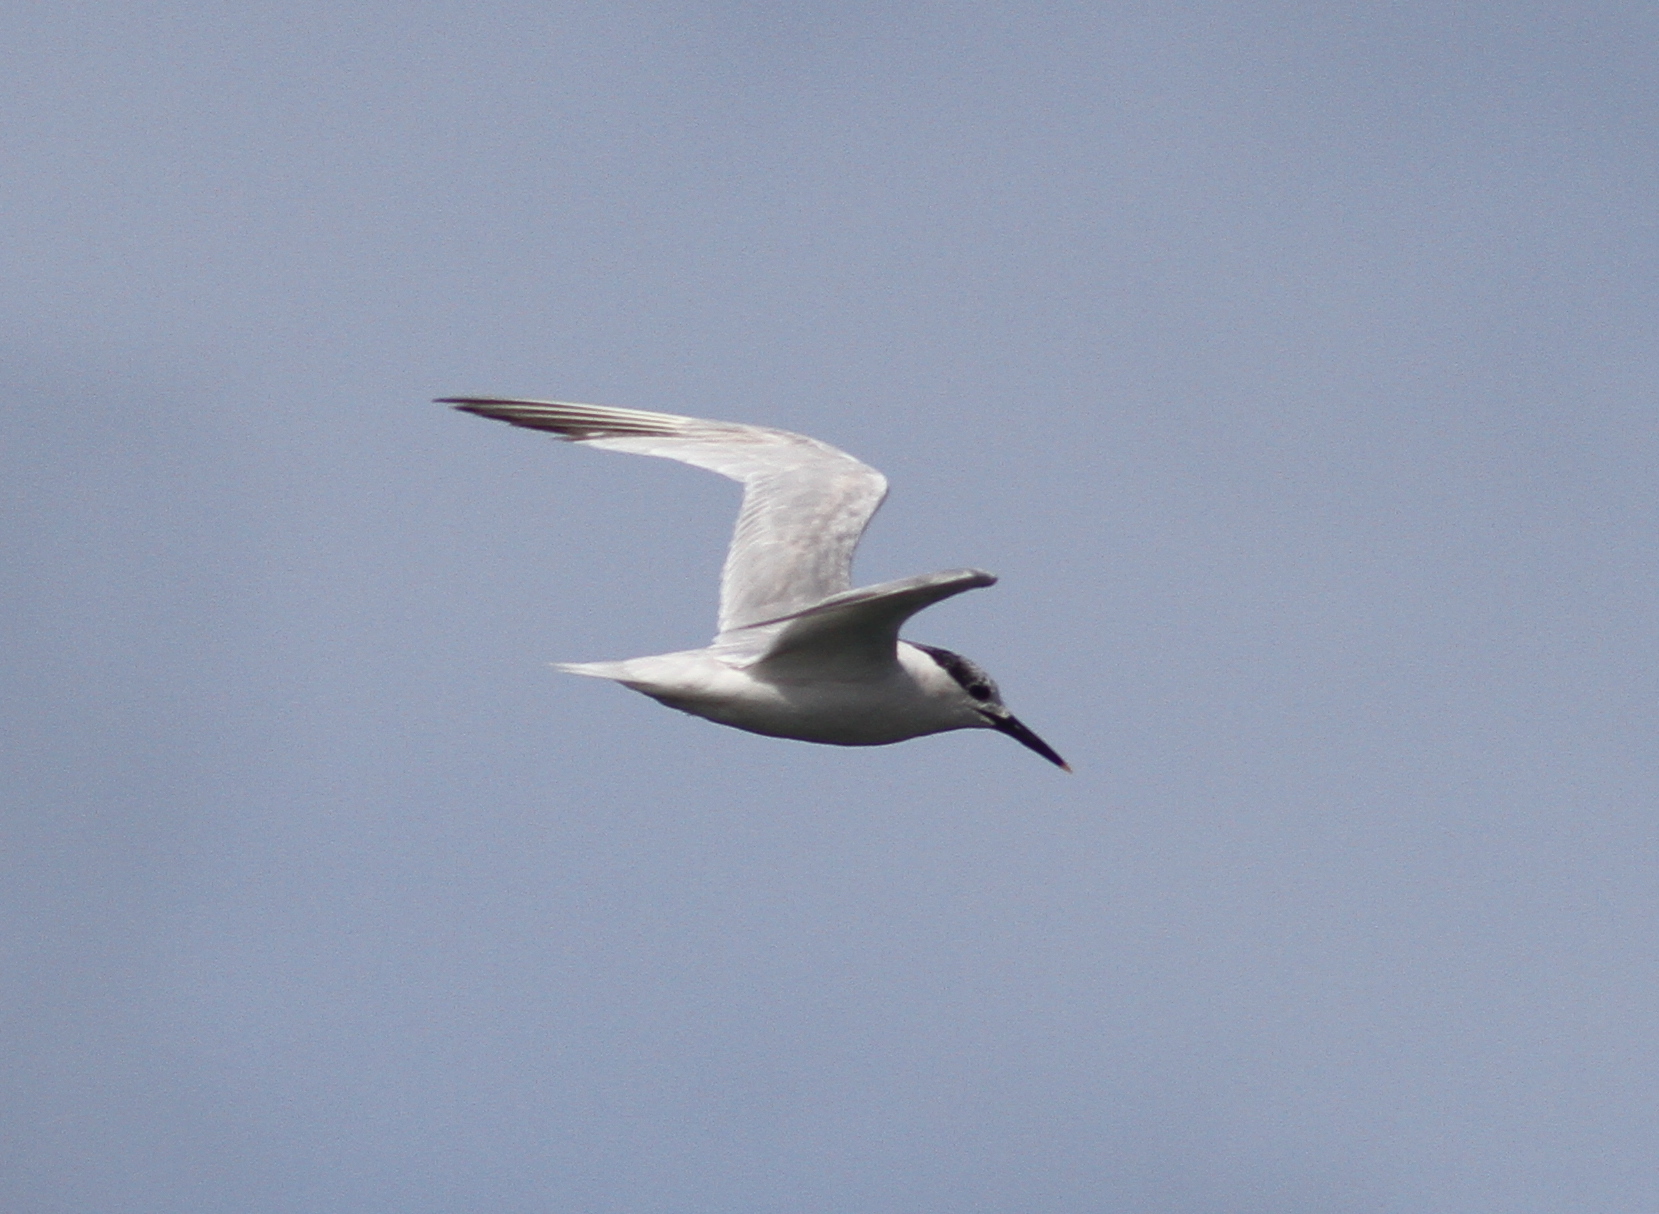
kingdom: Animalia
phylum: Chordata
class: Aves
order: Charadriiformes
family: Laridae
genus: Thalasseus
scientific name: Thalasseus sandvicensis
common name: Sandwich tern
